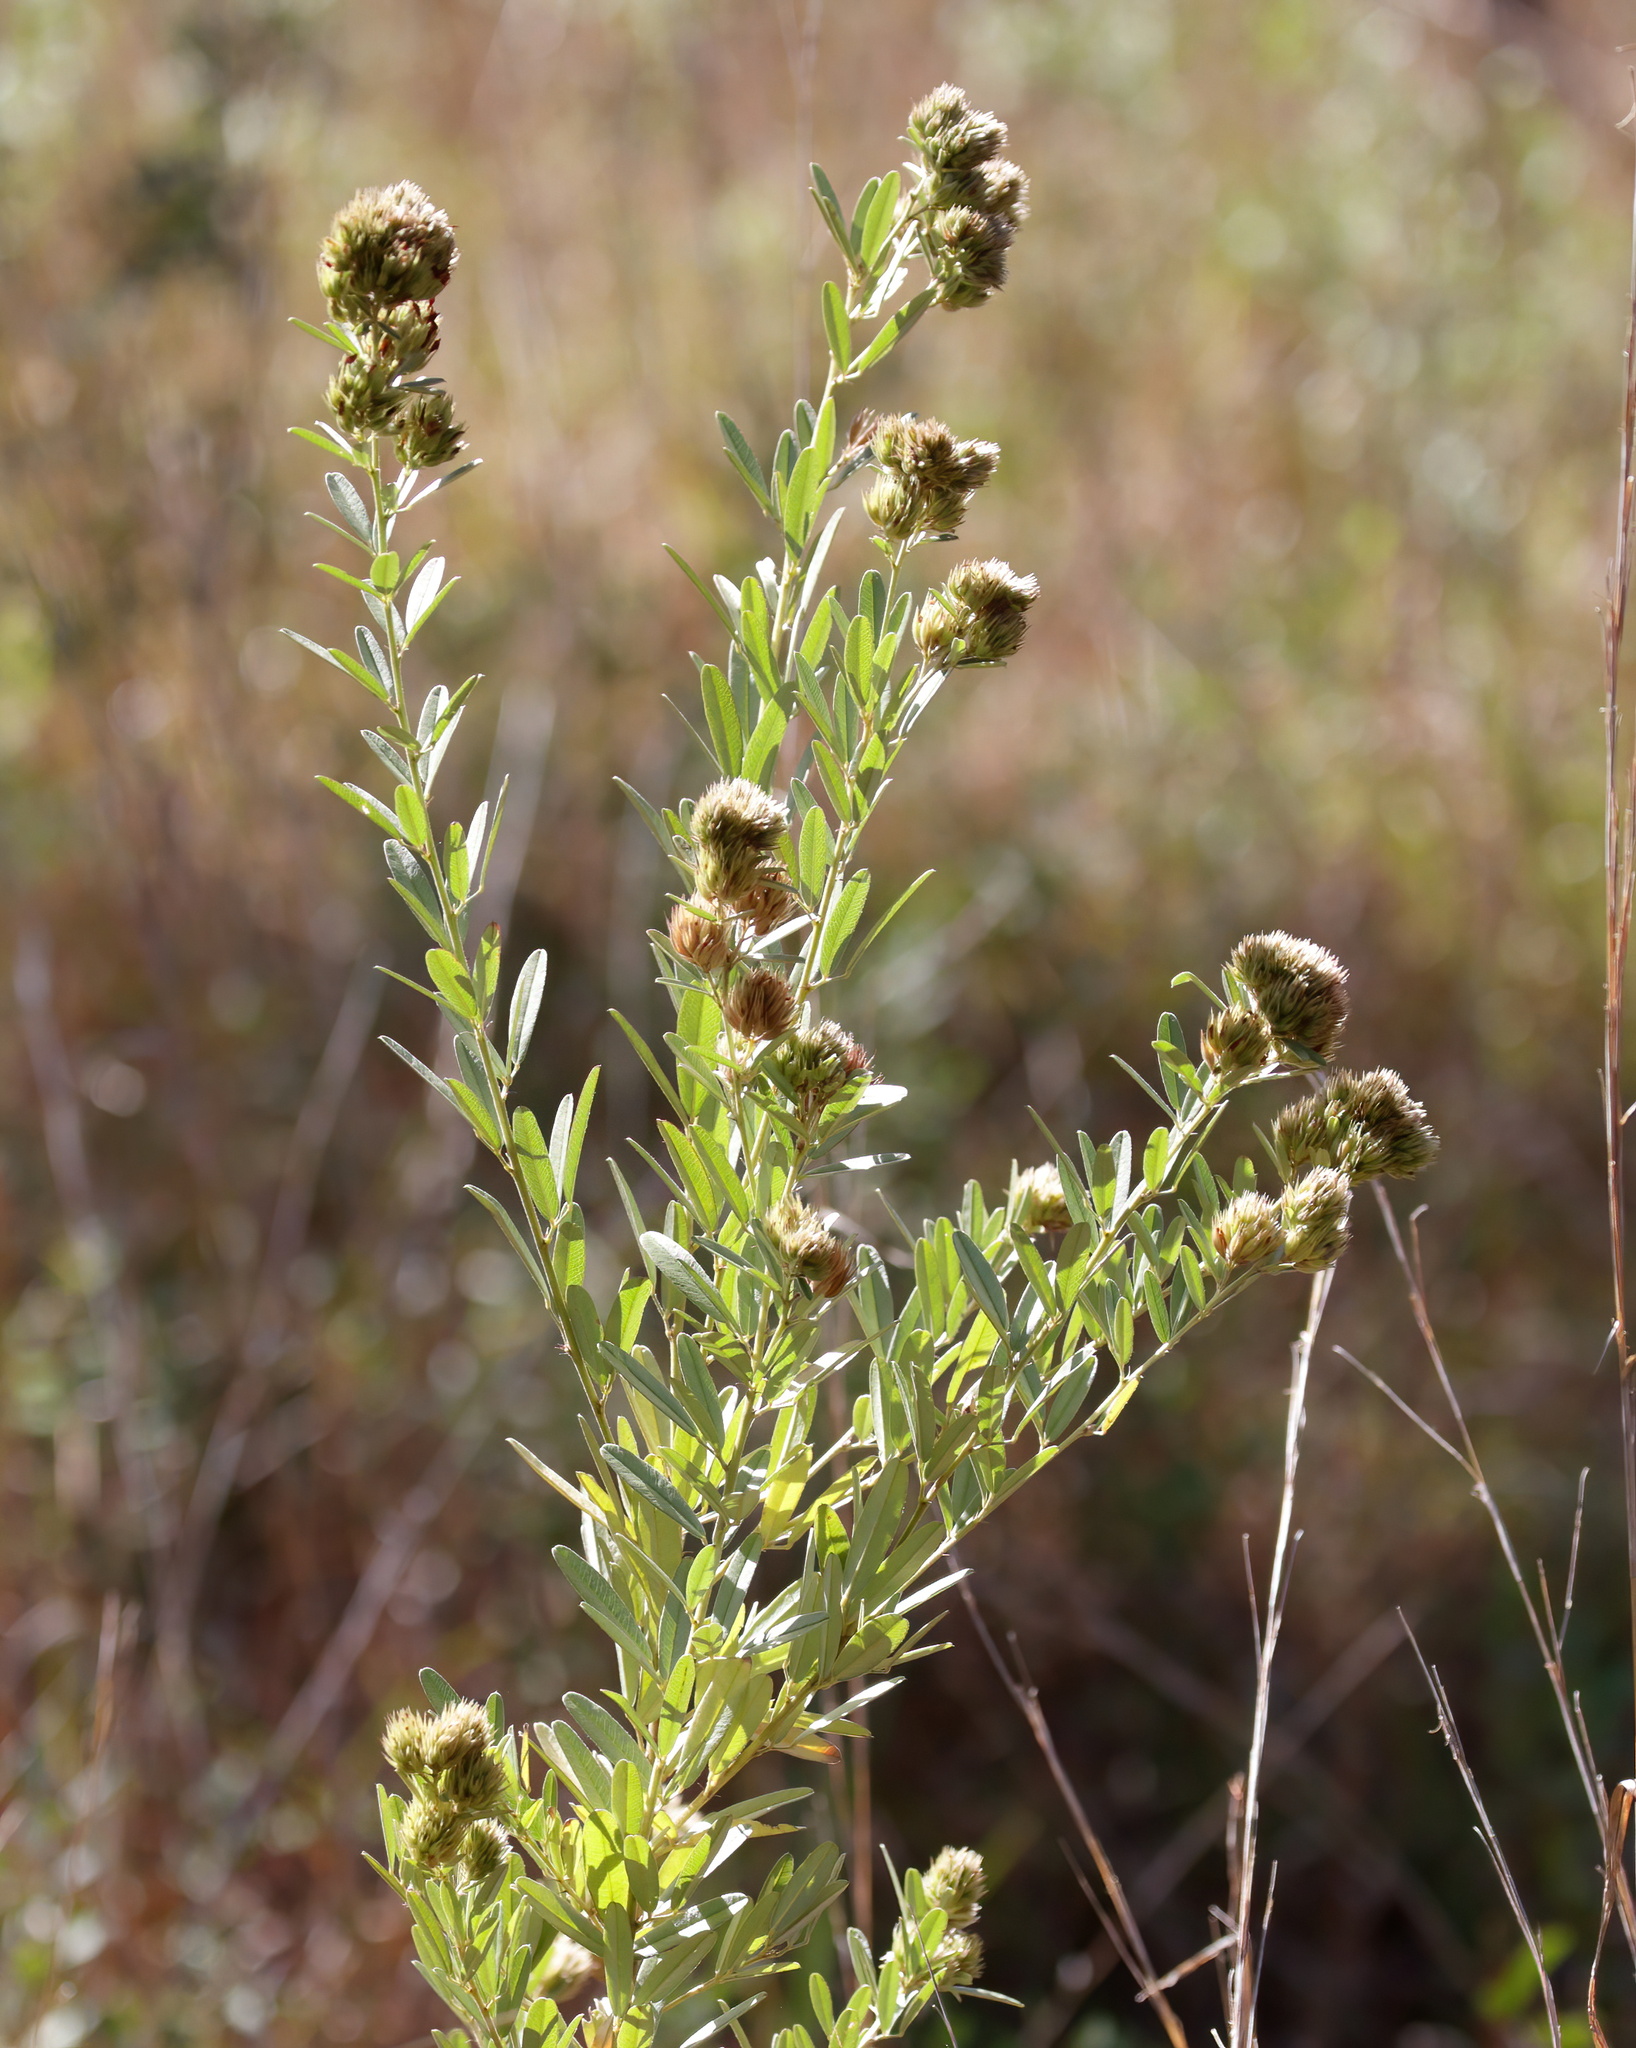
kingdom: Plantae
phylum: Tracheophyta
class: Magnoliopsida
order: Fabales
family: Fabaceae
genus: Lespedeza
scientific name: Lespedeza capitata
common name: Dusty clover
